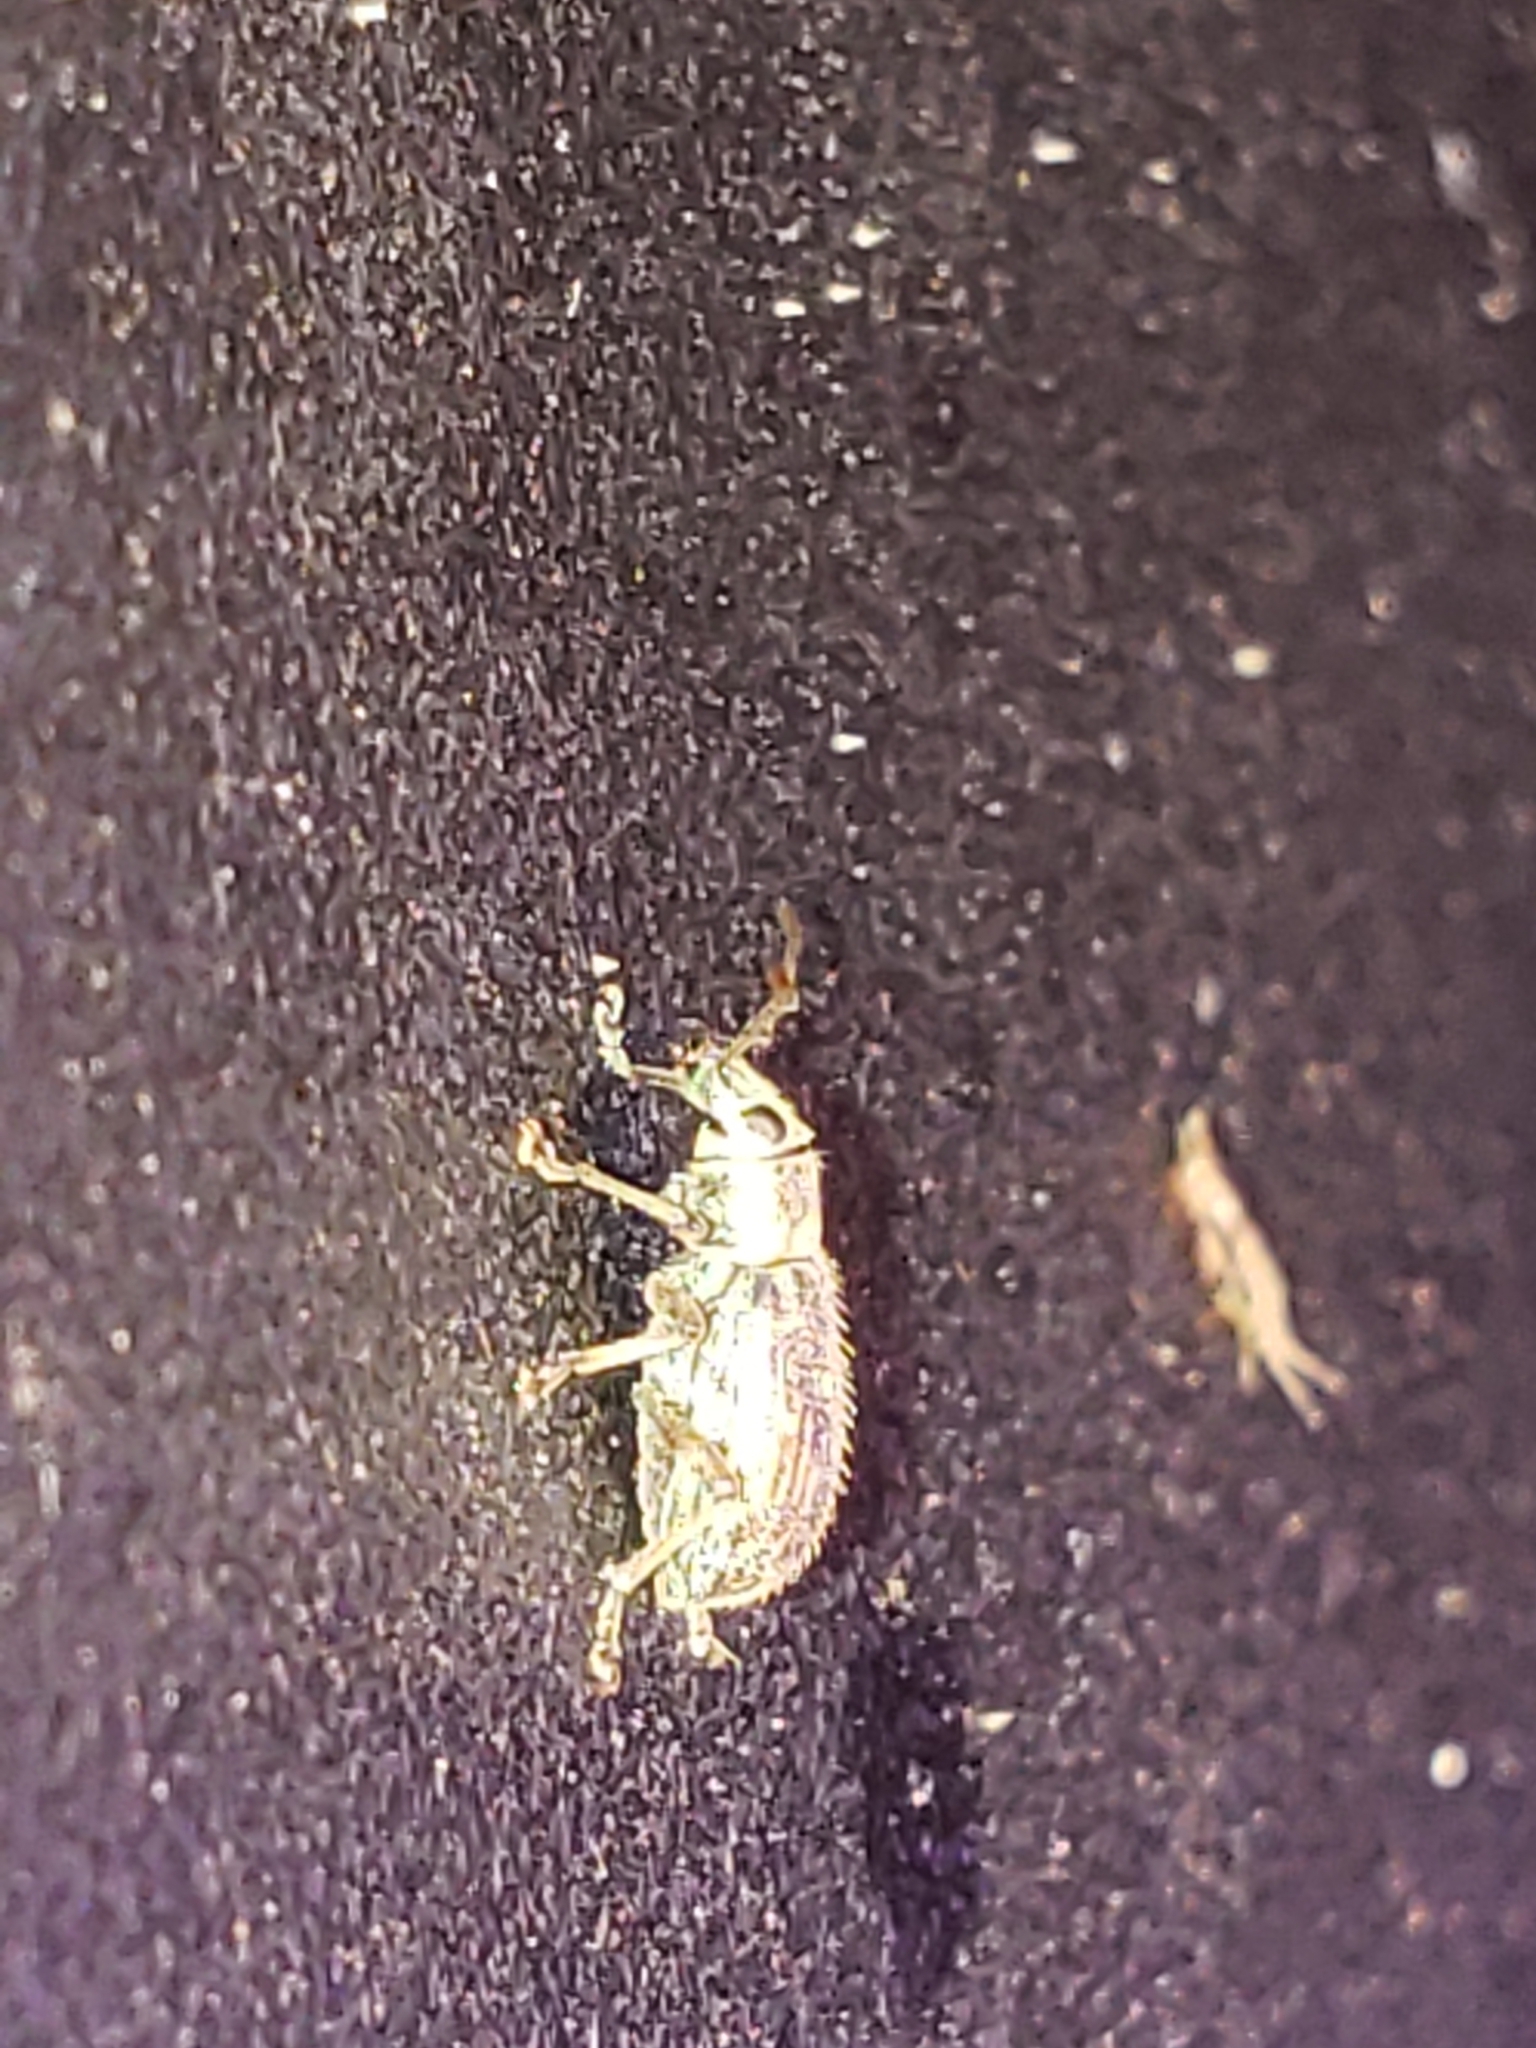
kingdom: Animalia
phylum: Arthropoda
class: Insecta
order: Coleoptera
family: Curculionidae
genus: Cyrtepistomus
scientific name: Cyrtepistomus castaneus
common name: Weevil
